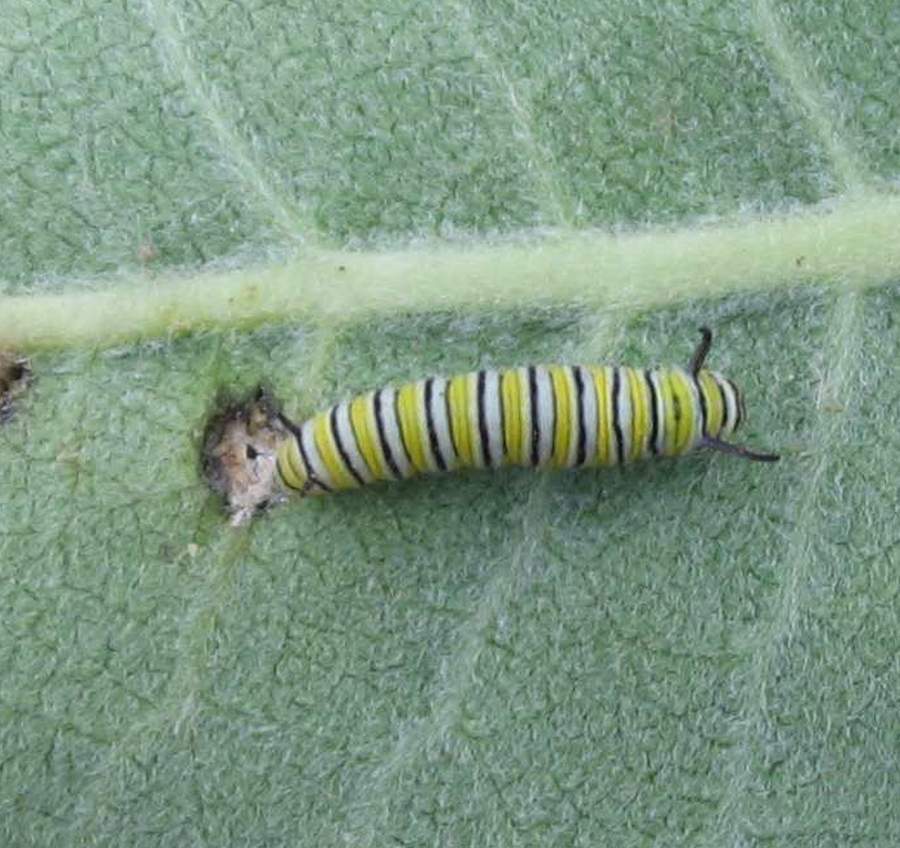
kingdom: Animalia
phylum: Arthropoda
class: Insecta
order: Lepidoptera
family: Nymphalidae
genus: Danaus
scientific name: Danaus plexippus
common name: Monarch
